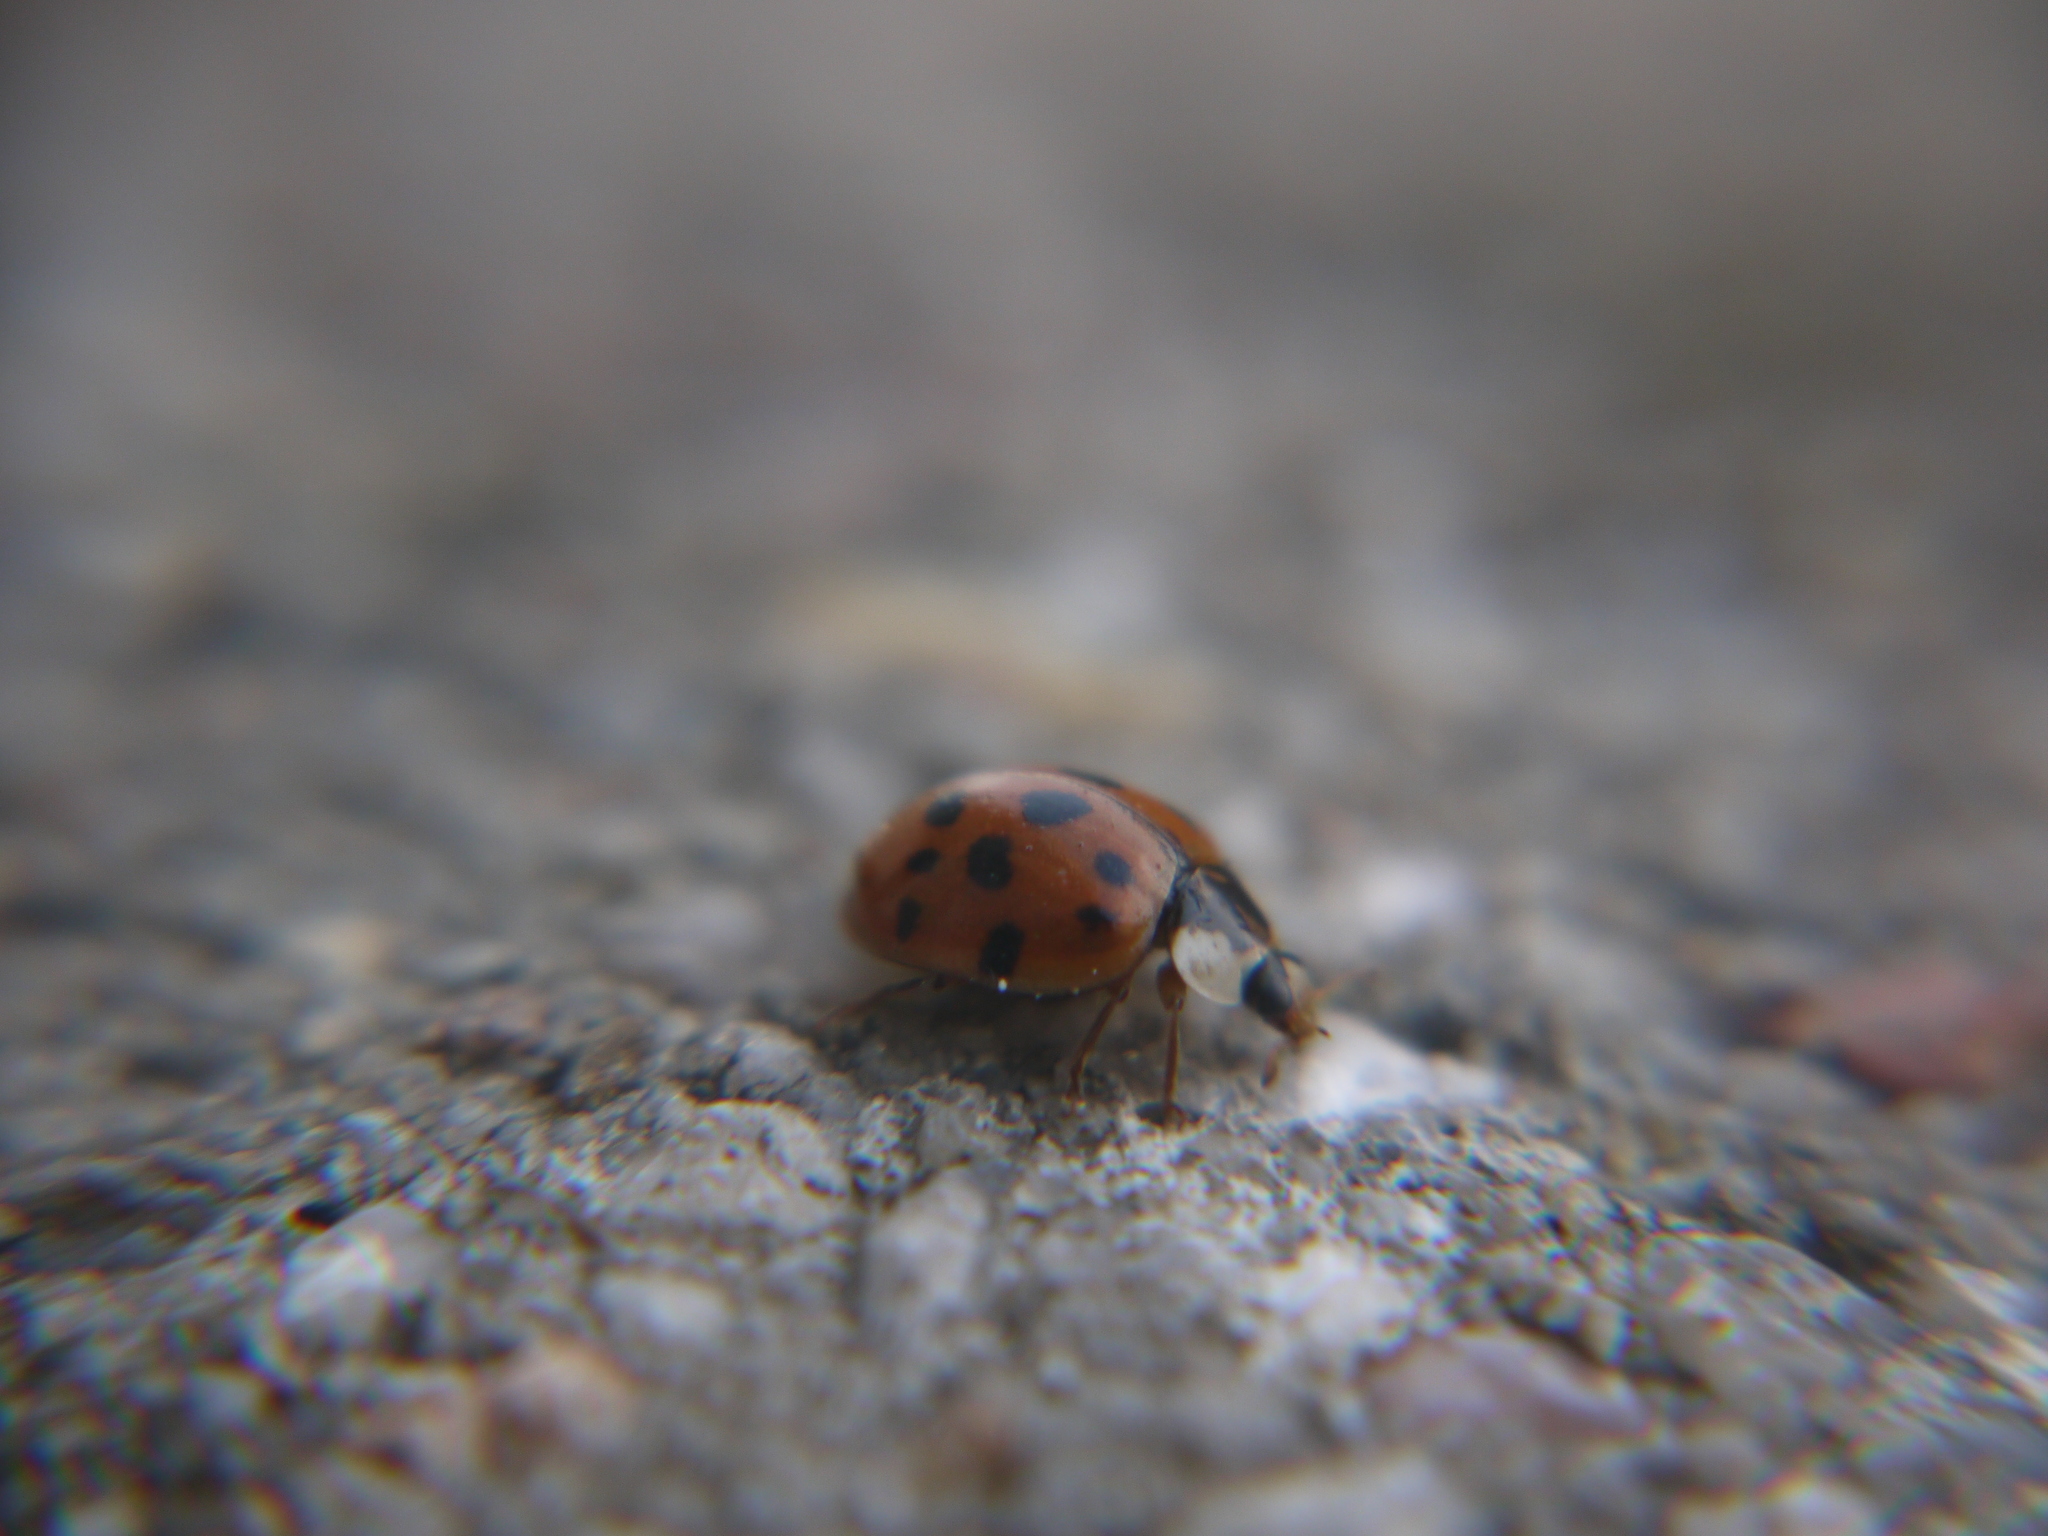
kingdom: Animalia
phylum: Arthropoda
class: Insecta
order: Coleoptera
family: Coccinellidae
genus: Harmonia
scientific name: Harmonia axyridis
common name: Harlequin ladybird
